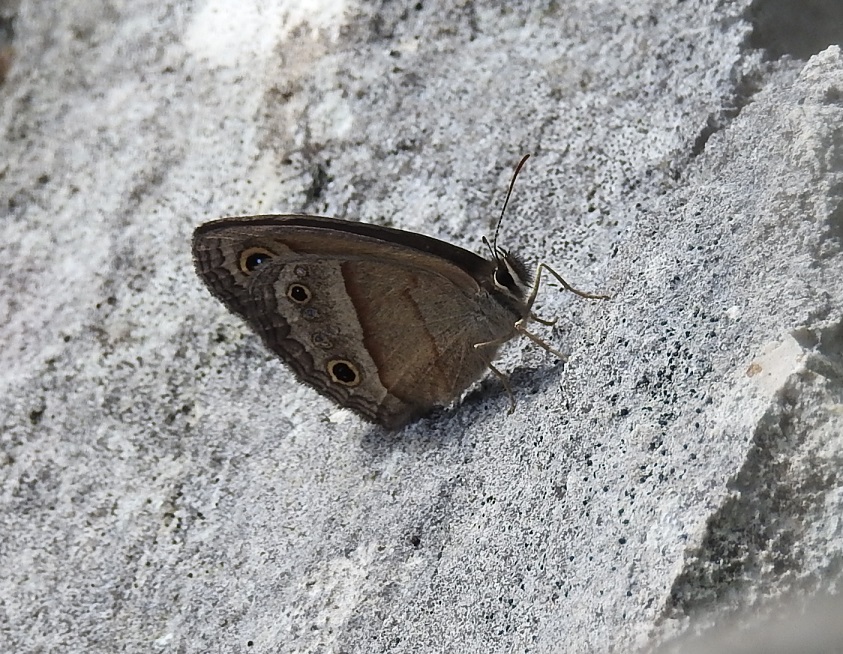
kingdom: Animalia
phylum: Arthropoda
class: Insecta
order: Lepidoptera
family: Nymphalidae
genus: Euptychia
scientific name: Euptychia
